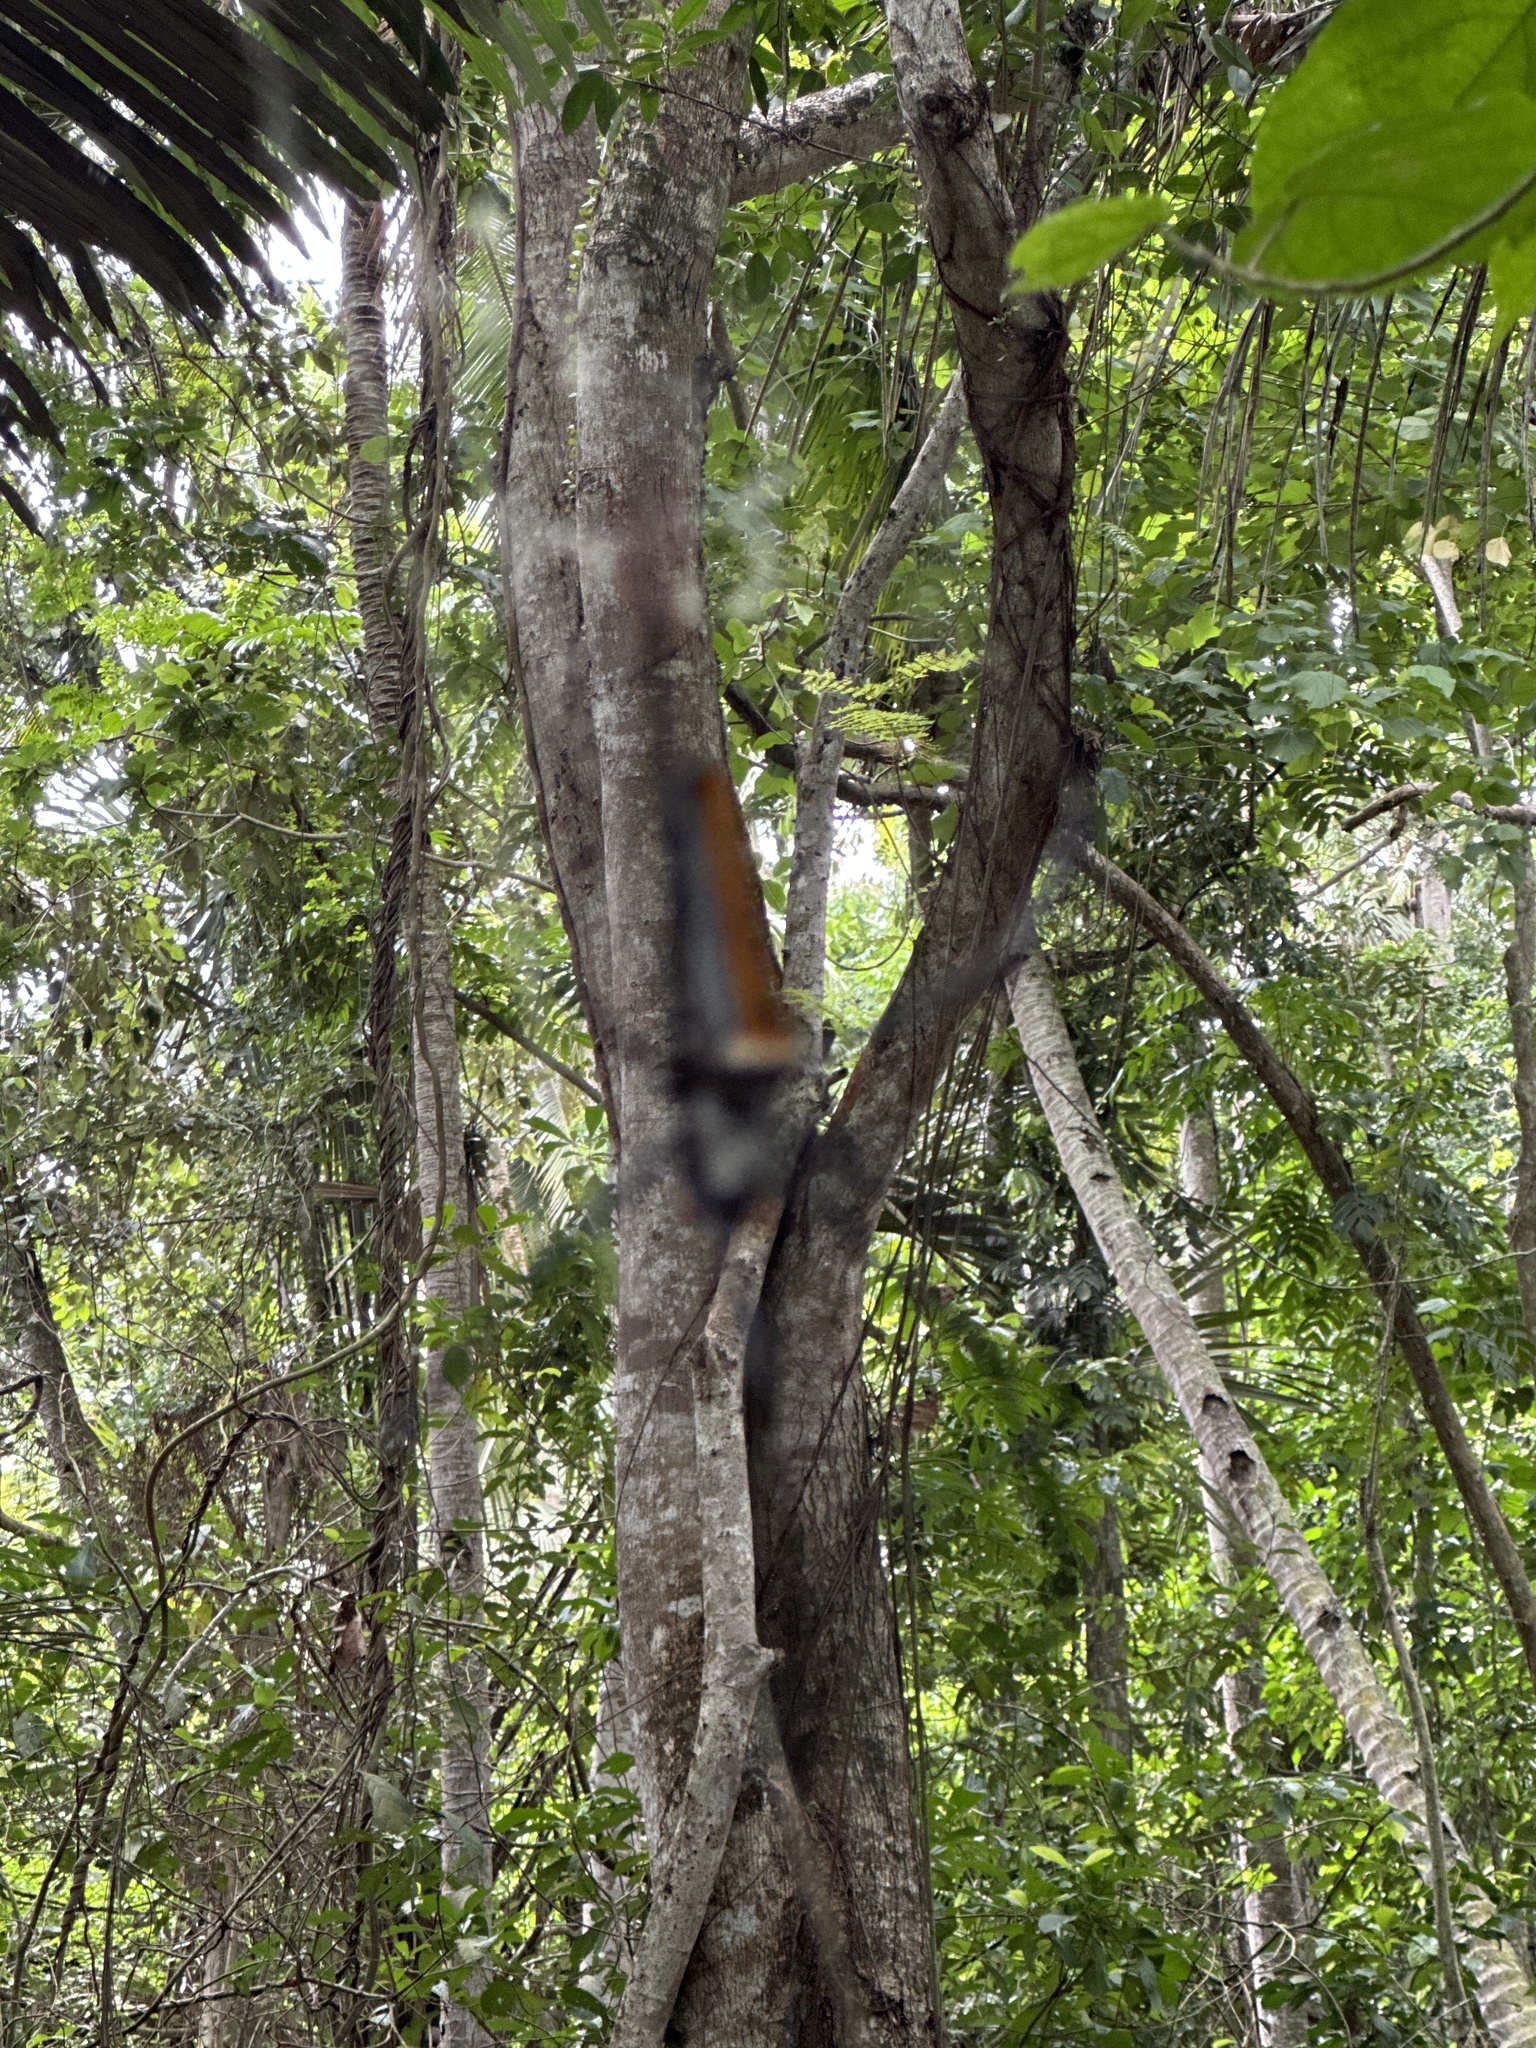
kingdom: Animalia
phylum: Arthropoda
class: Arachnida
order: Araneae
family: Araneidae
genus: Nephila
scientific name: Nephila pilipes
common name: Giant golden orb weaver
